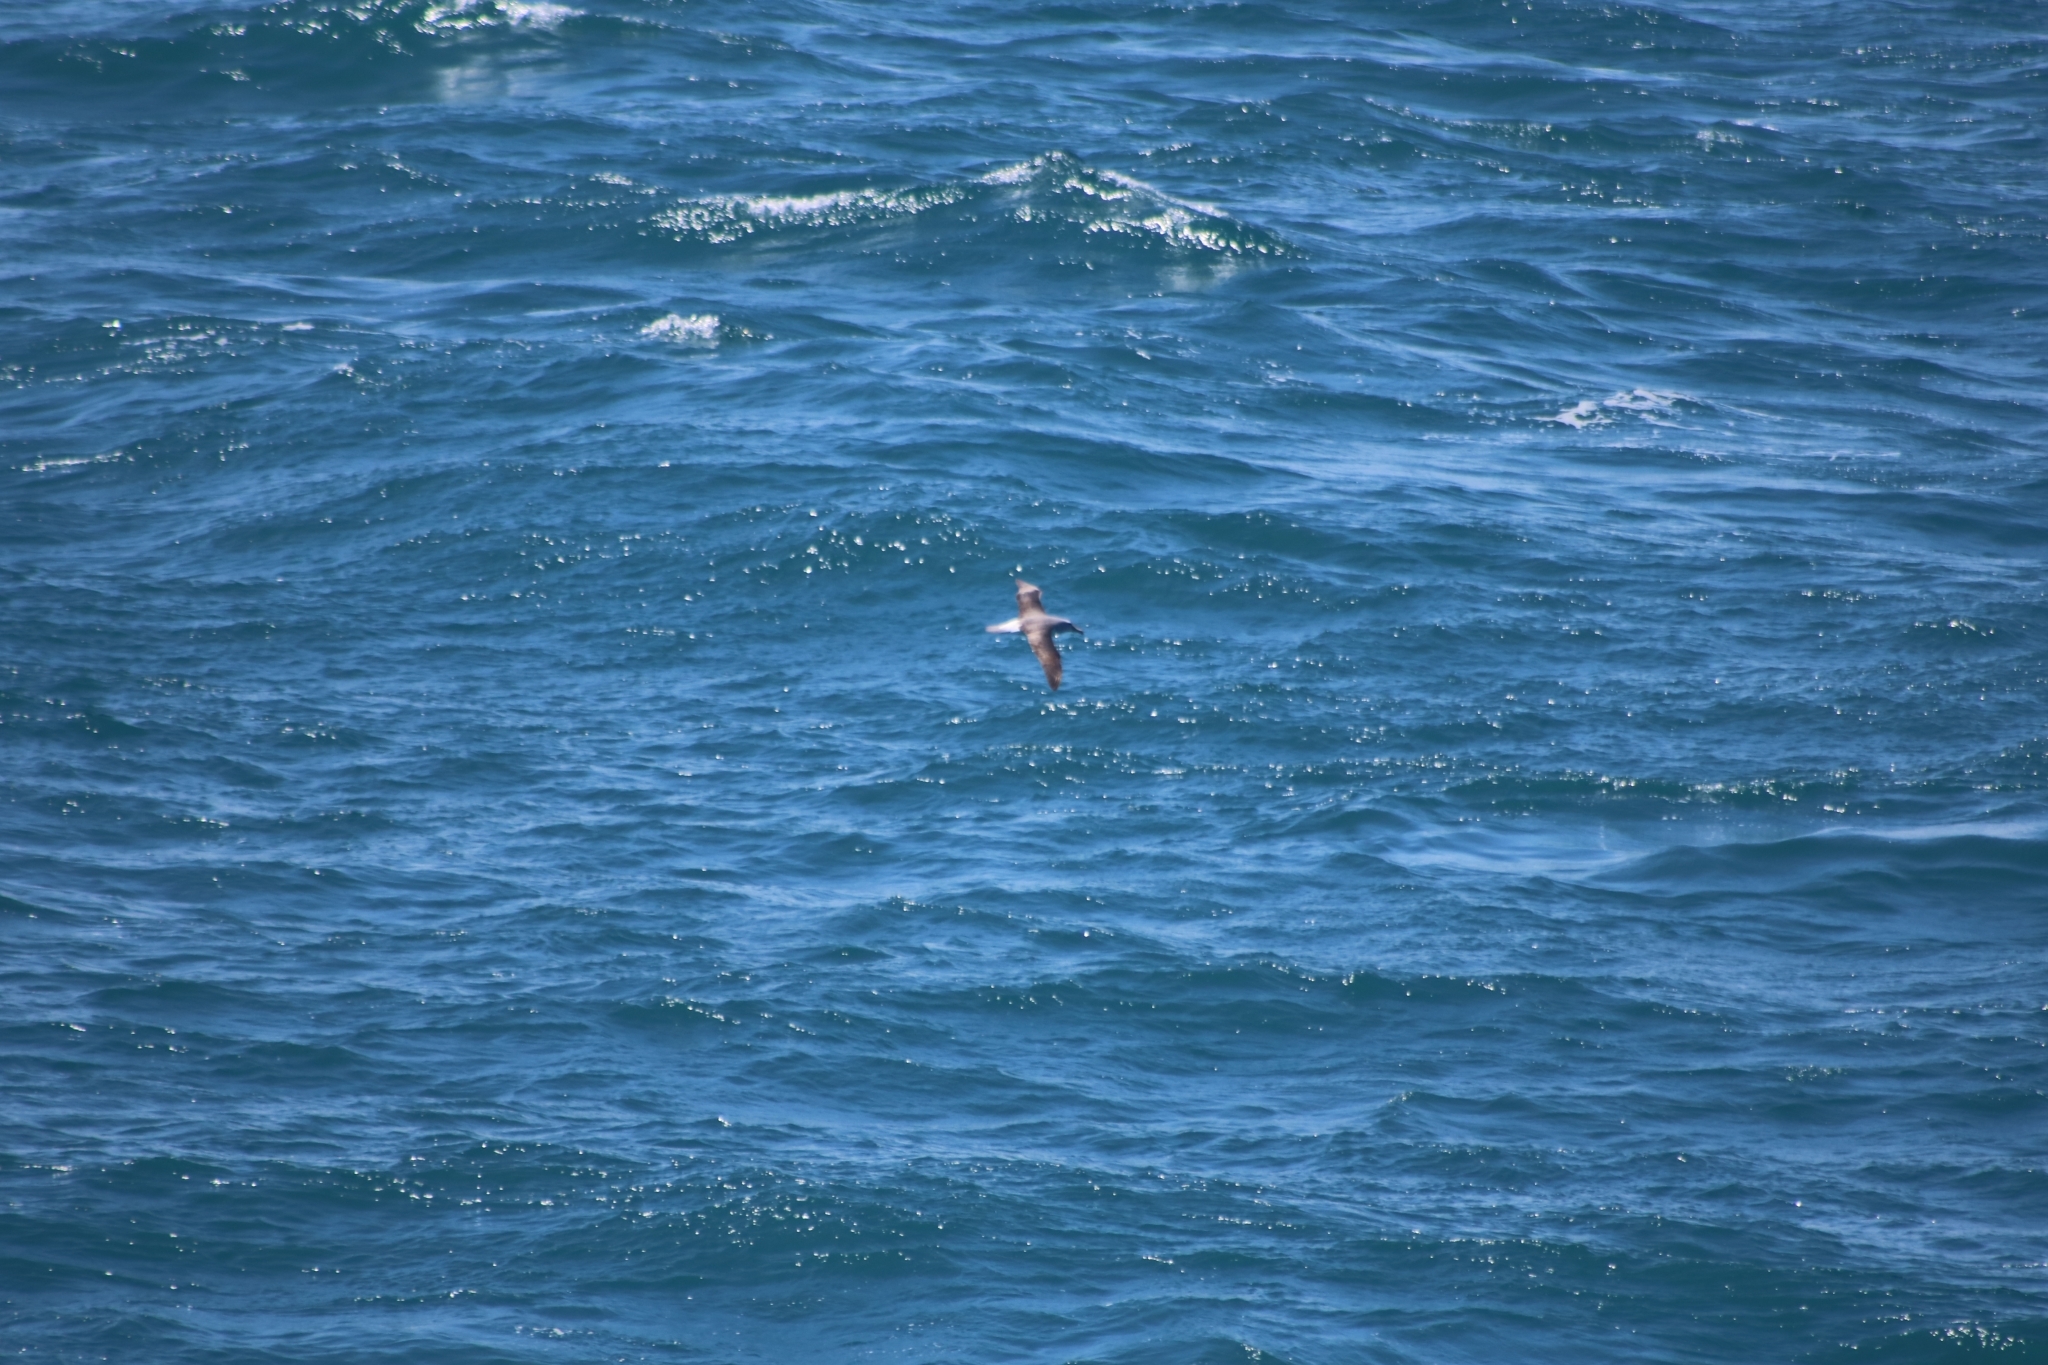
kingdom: Animalia
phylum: Chordata
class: Aves
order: Procellariiformes
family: Diomedeidae
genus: Thalassarche
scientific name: Thalassarche bulleri
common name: Buller's albatross
